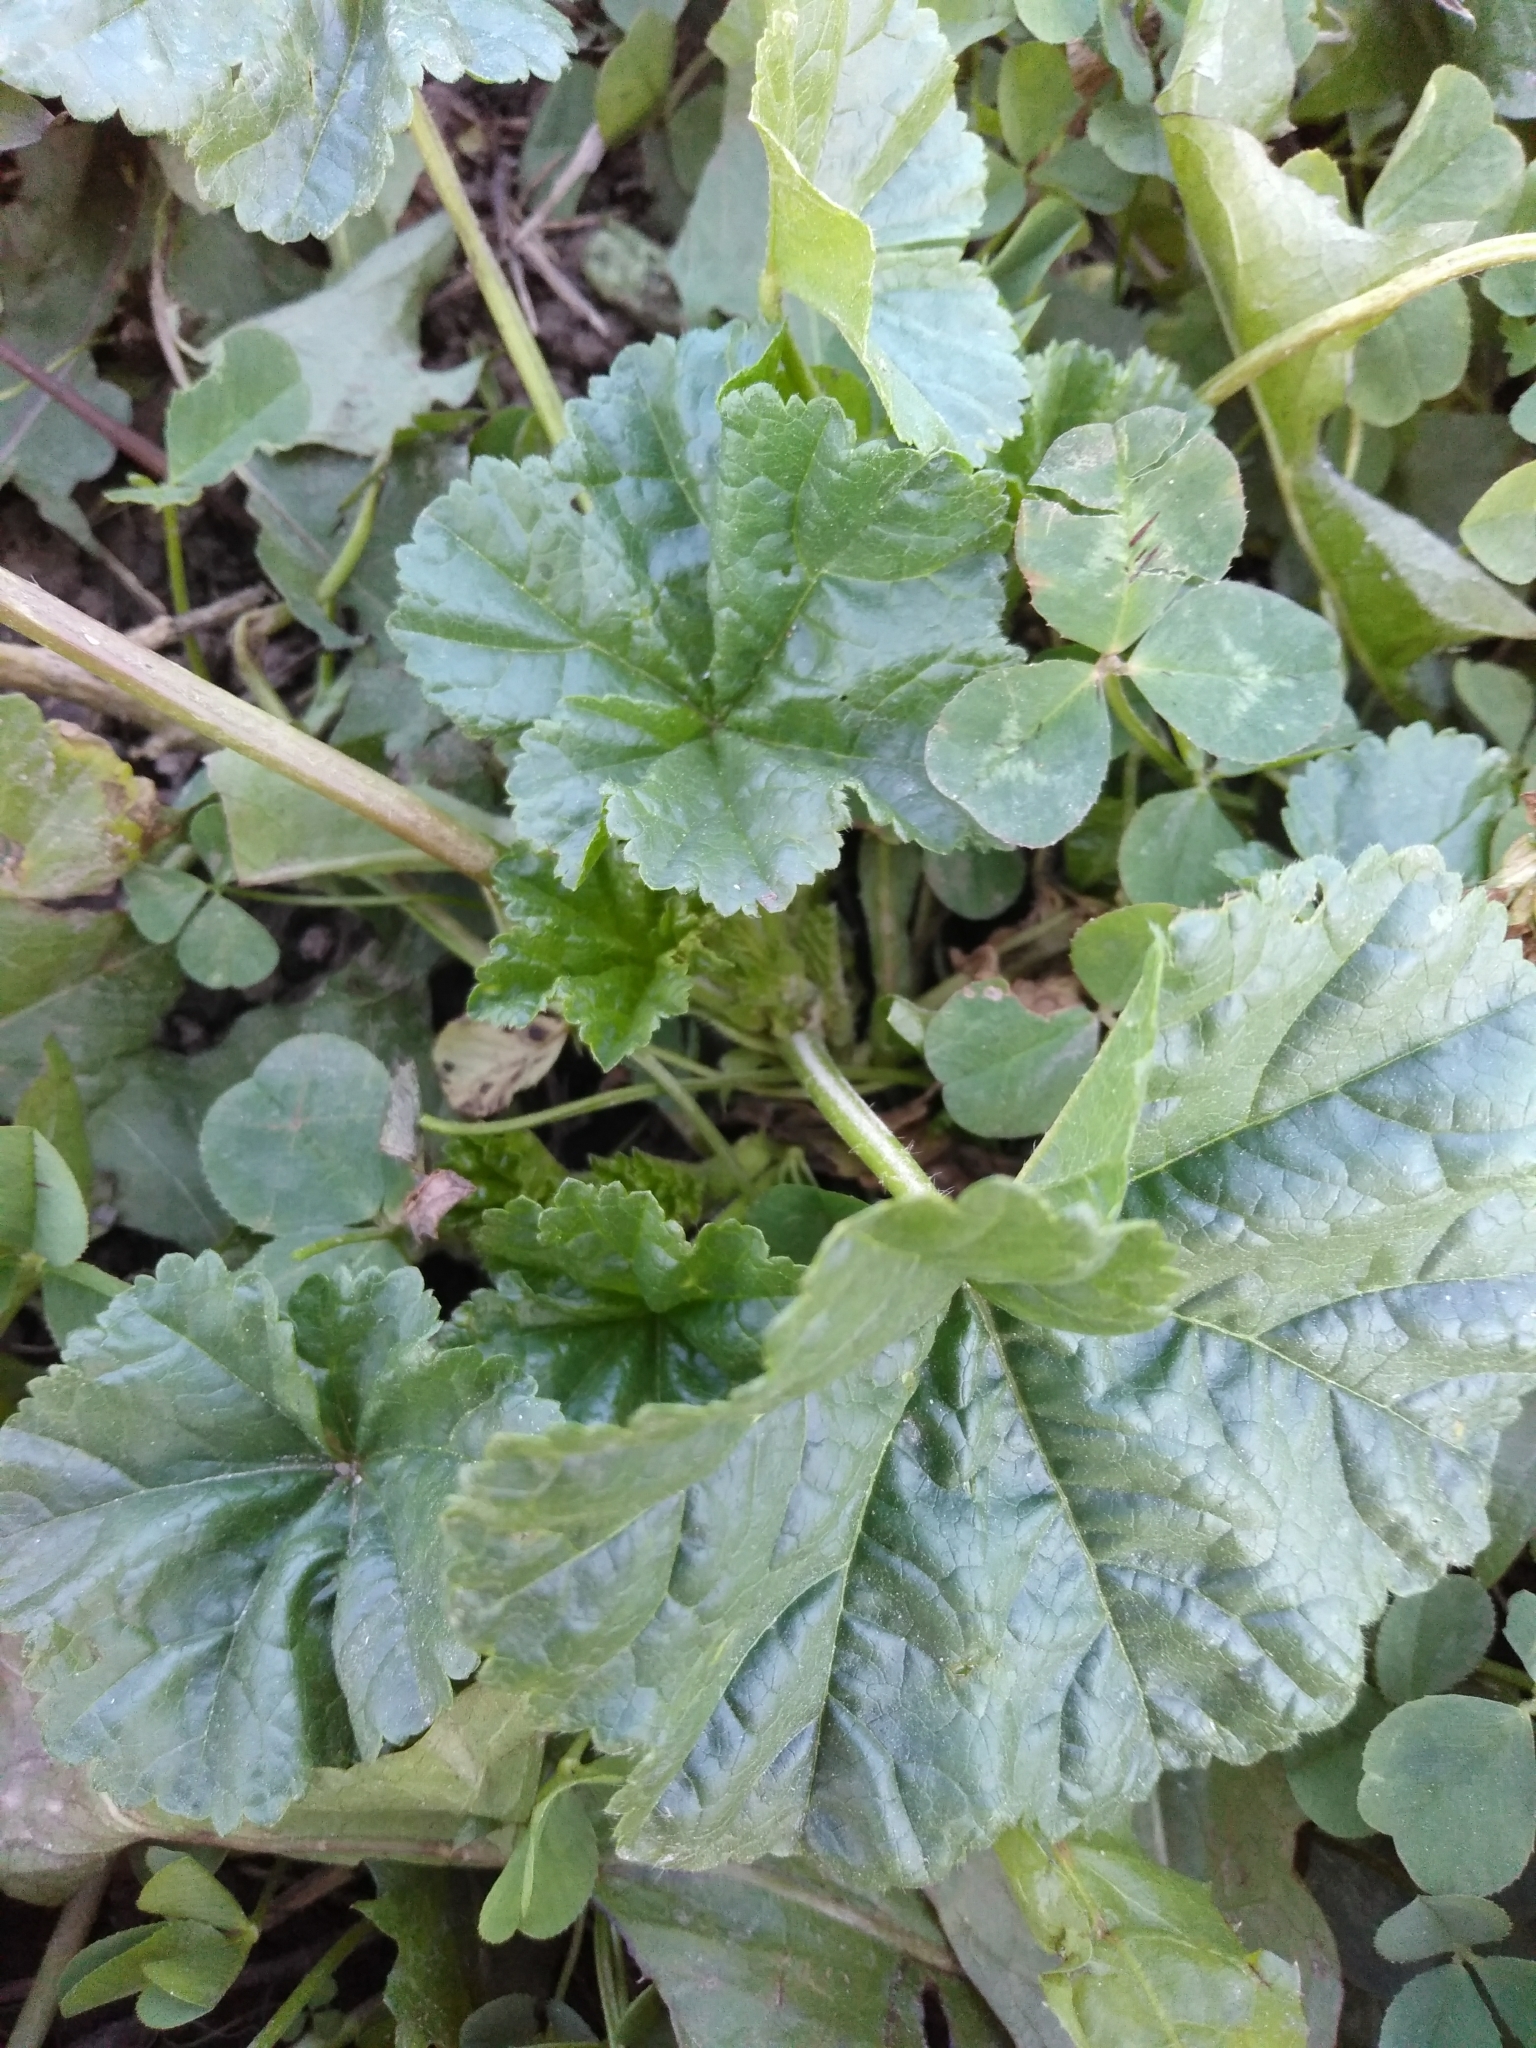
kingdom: Plantae
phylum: Tracheophyta
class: Magnoliopsida
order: Malvales
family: Malvaceae
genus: Malva
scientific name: Malva pusilla
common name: Small mallow
